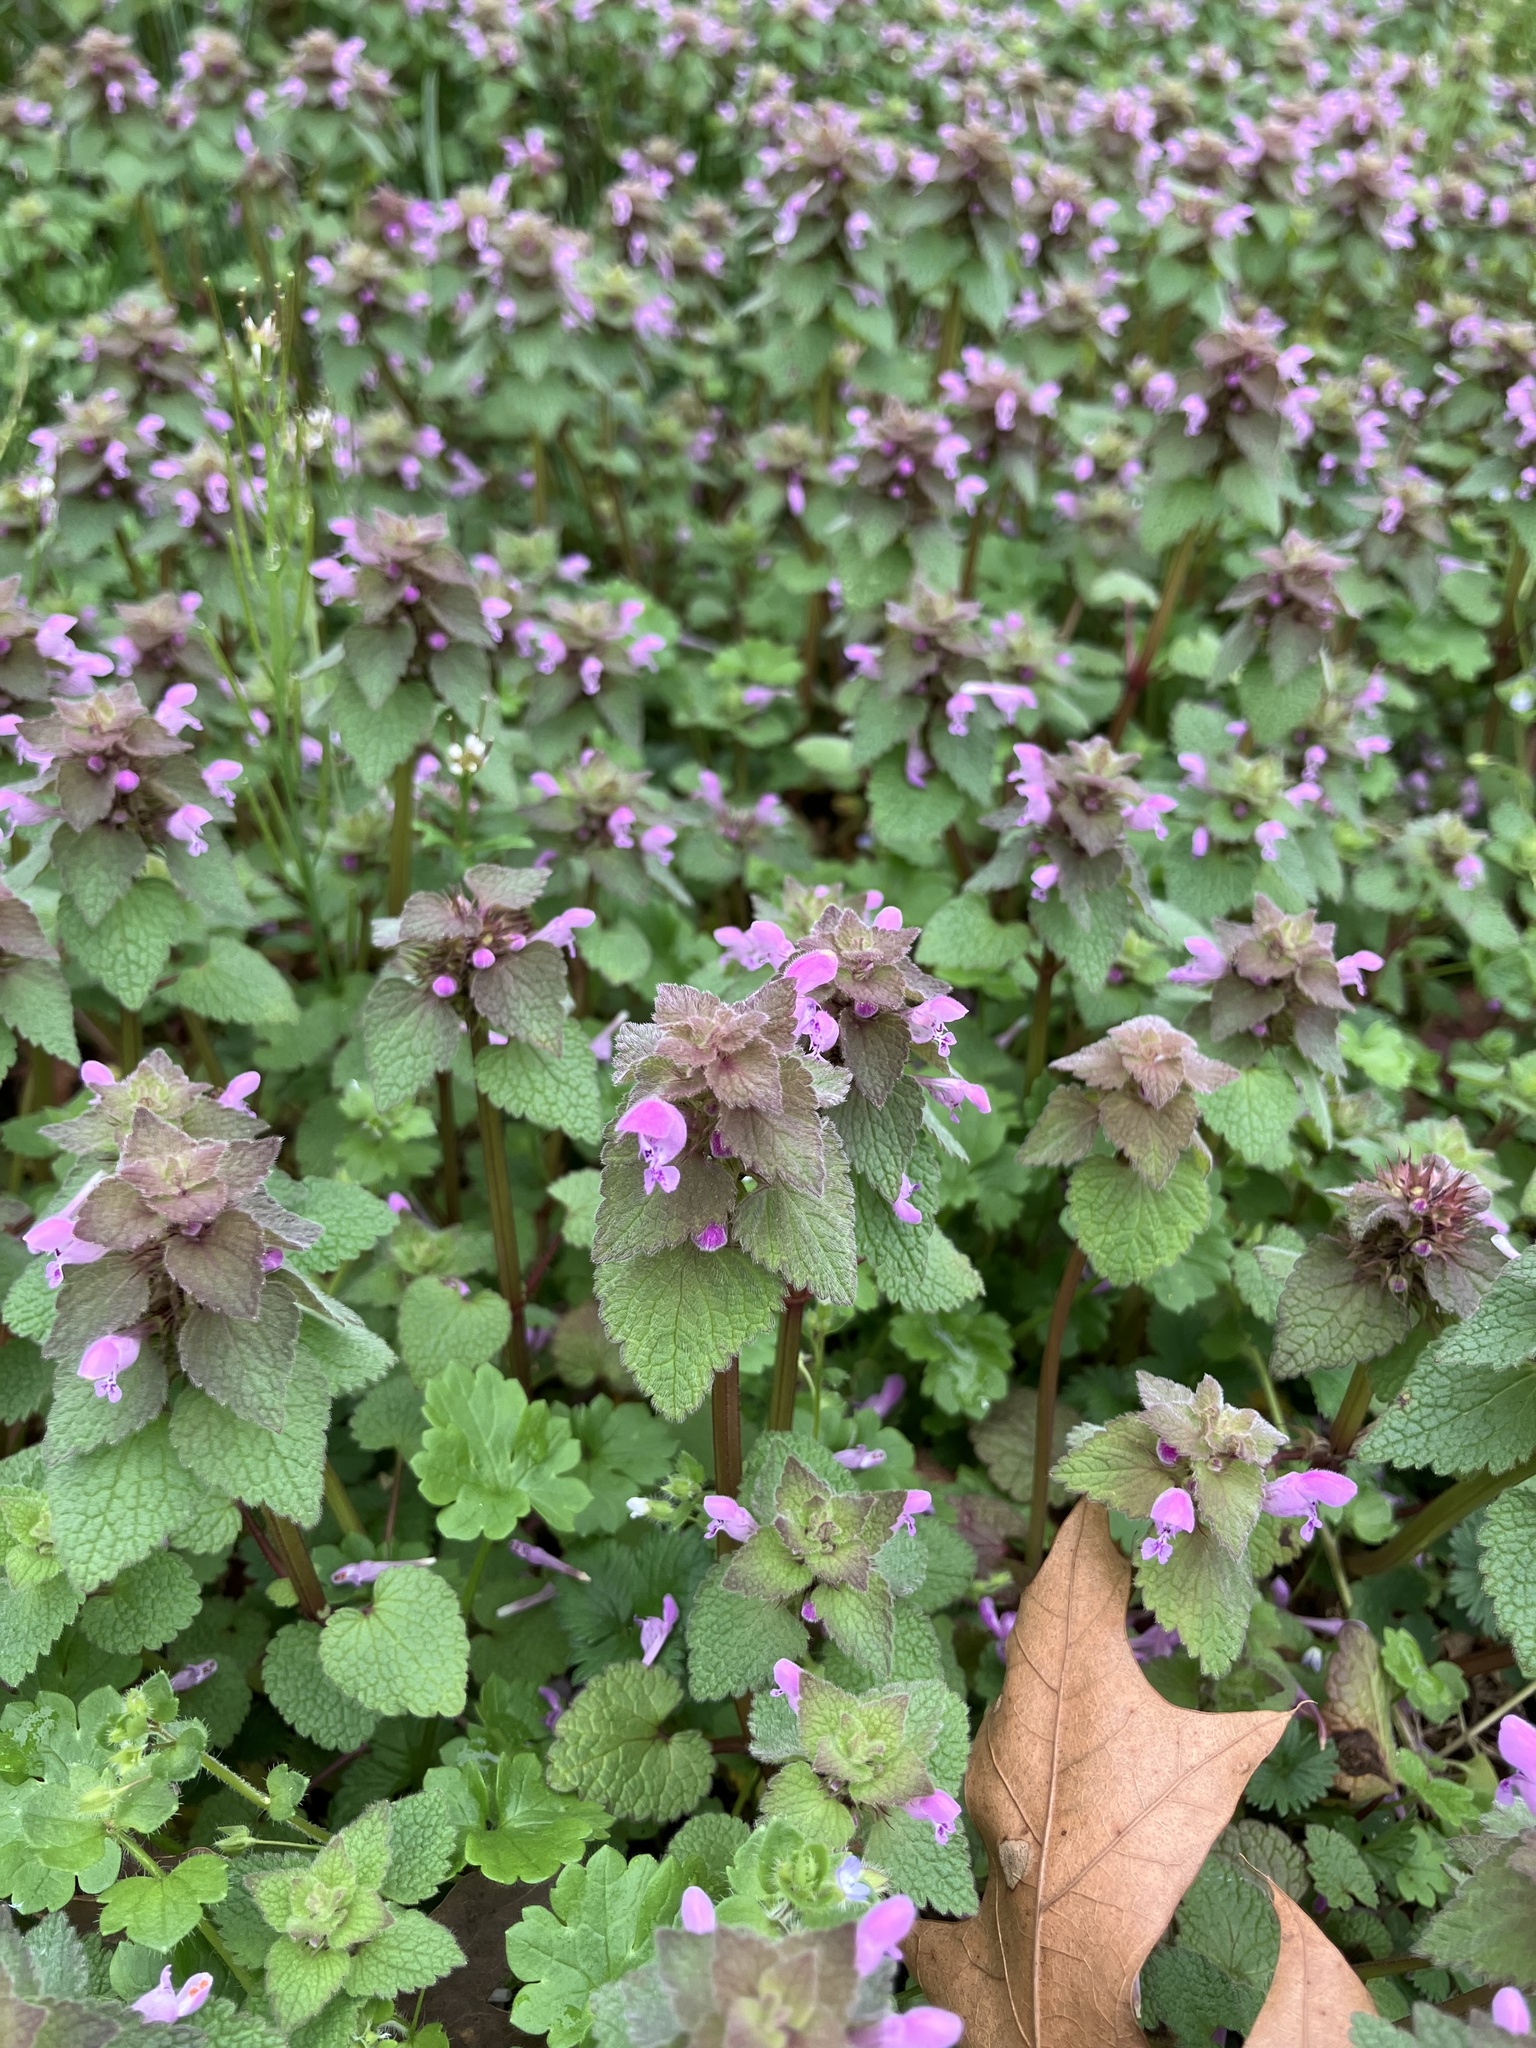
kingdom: Plantae
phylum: Tracheophyta
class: Magnoliopsida
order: Lamiales
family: Lamiaceae
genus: Lamium
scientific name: Lamium purpureum
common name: Red dead-nettle
